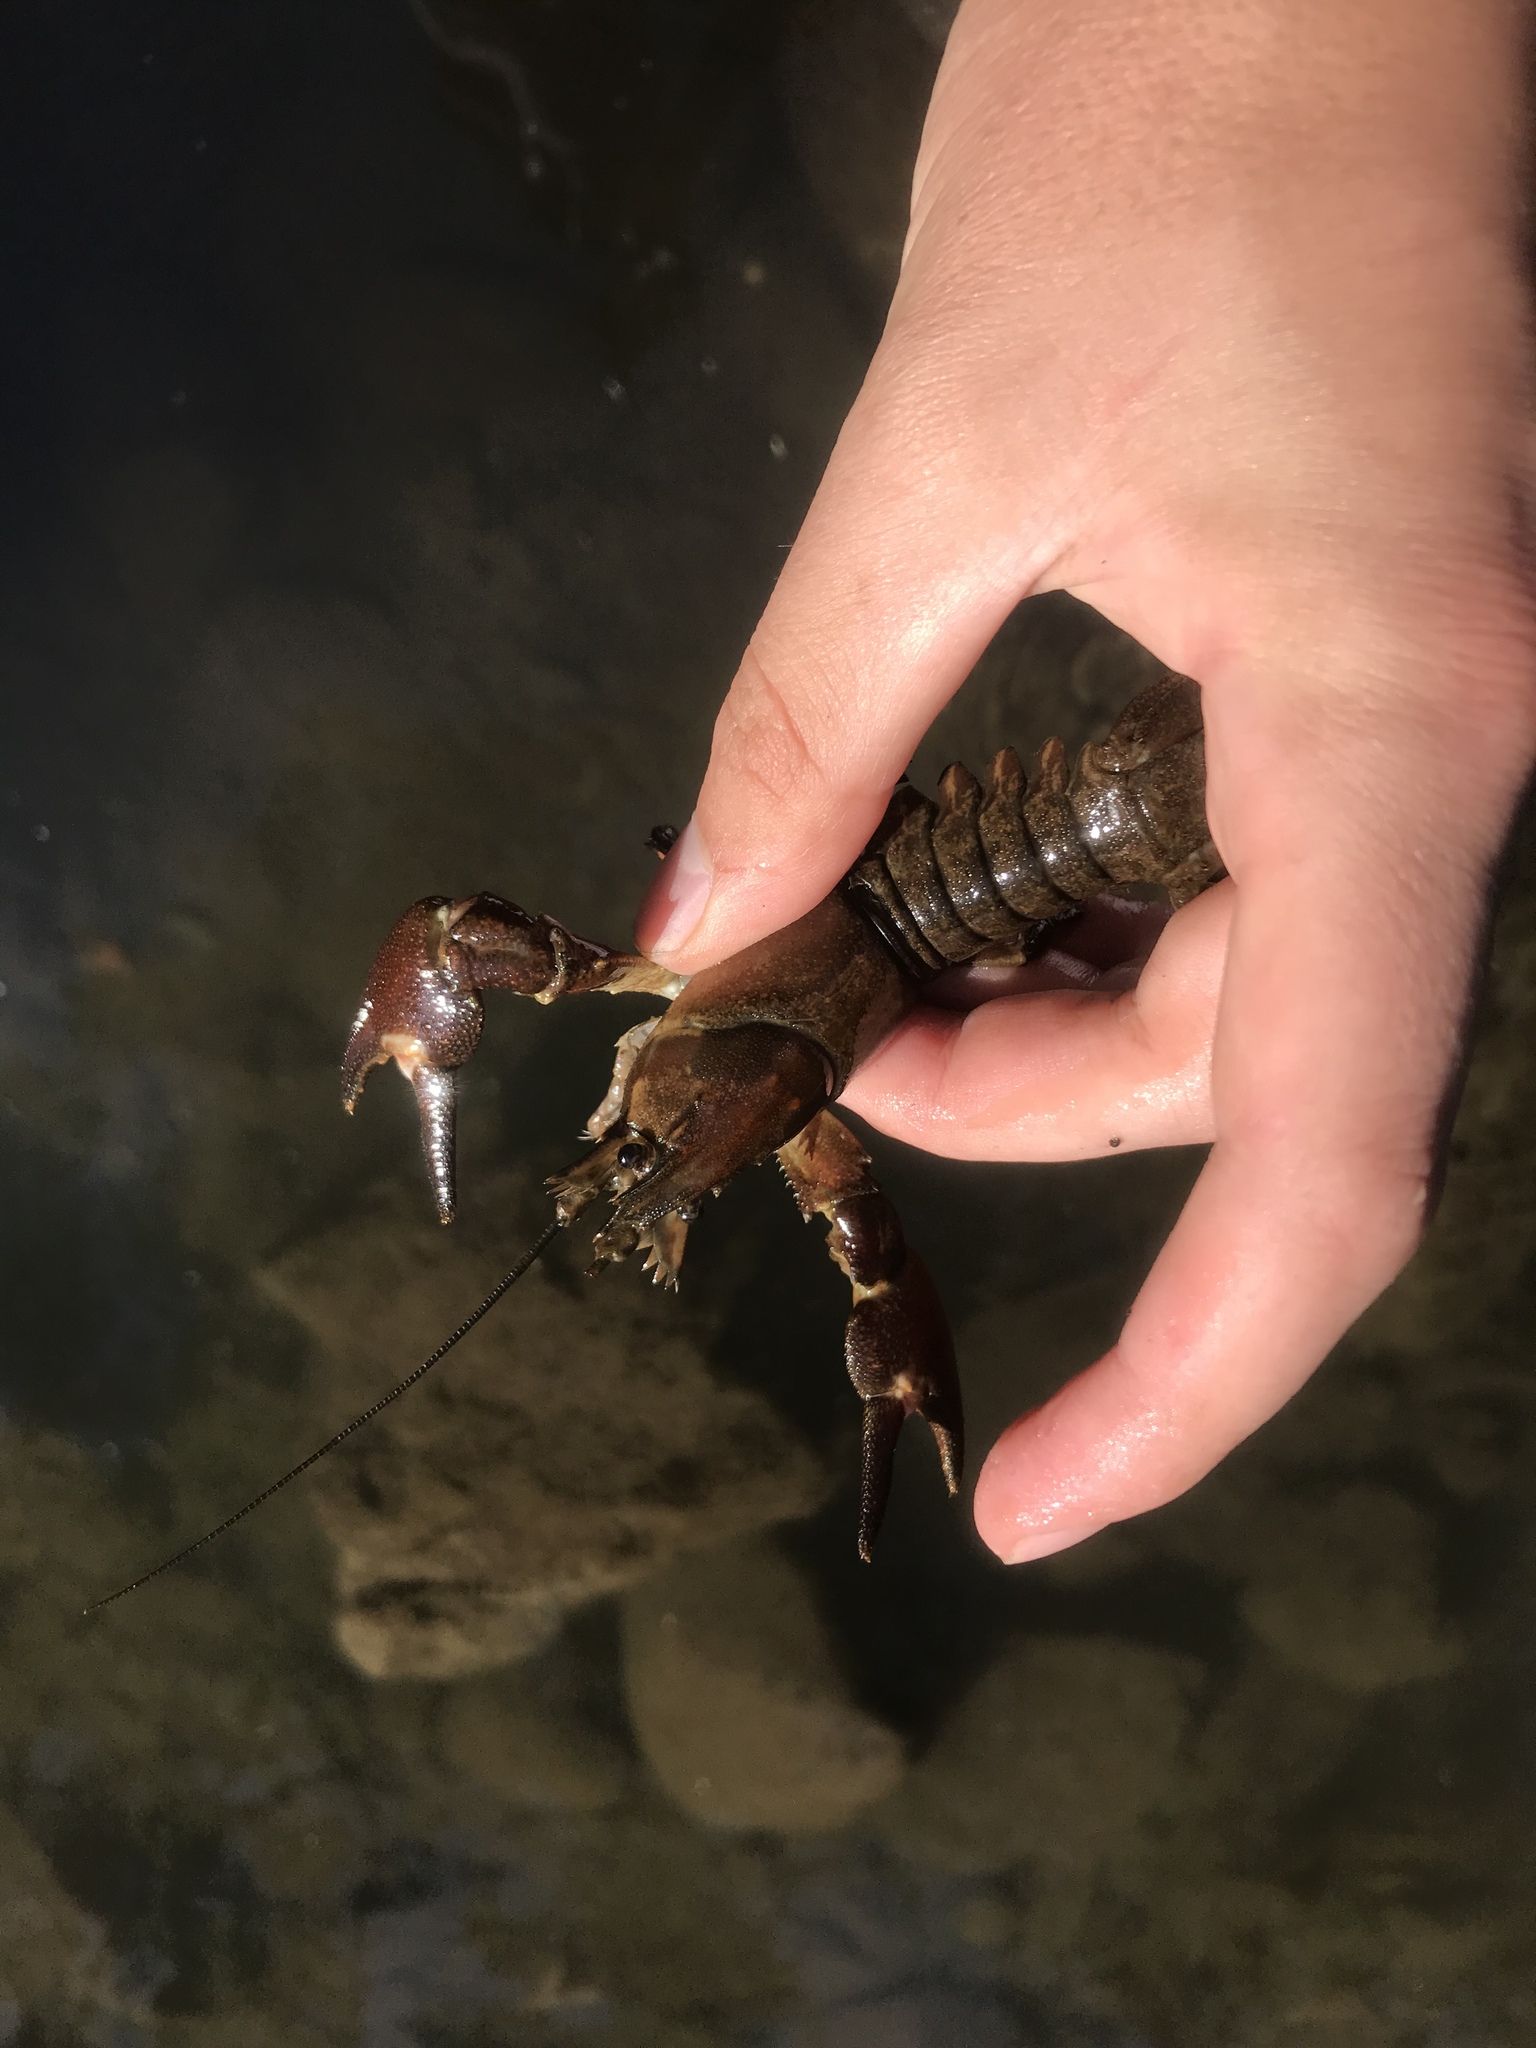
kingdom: Animalia
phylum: Arthropoda
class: Malacostraca
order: Decapoda
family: Astacidae
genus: Pacifastacus
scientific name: Pacifastacus leniusculus
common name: Signal crayfish
